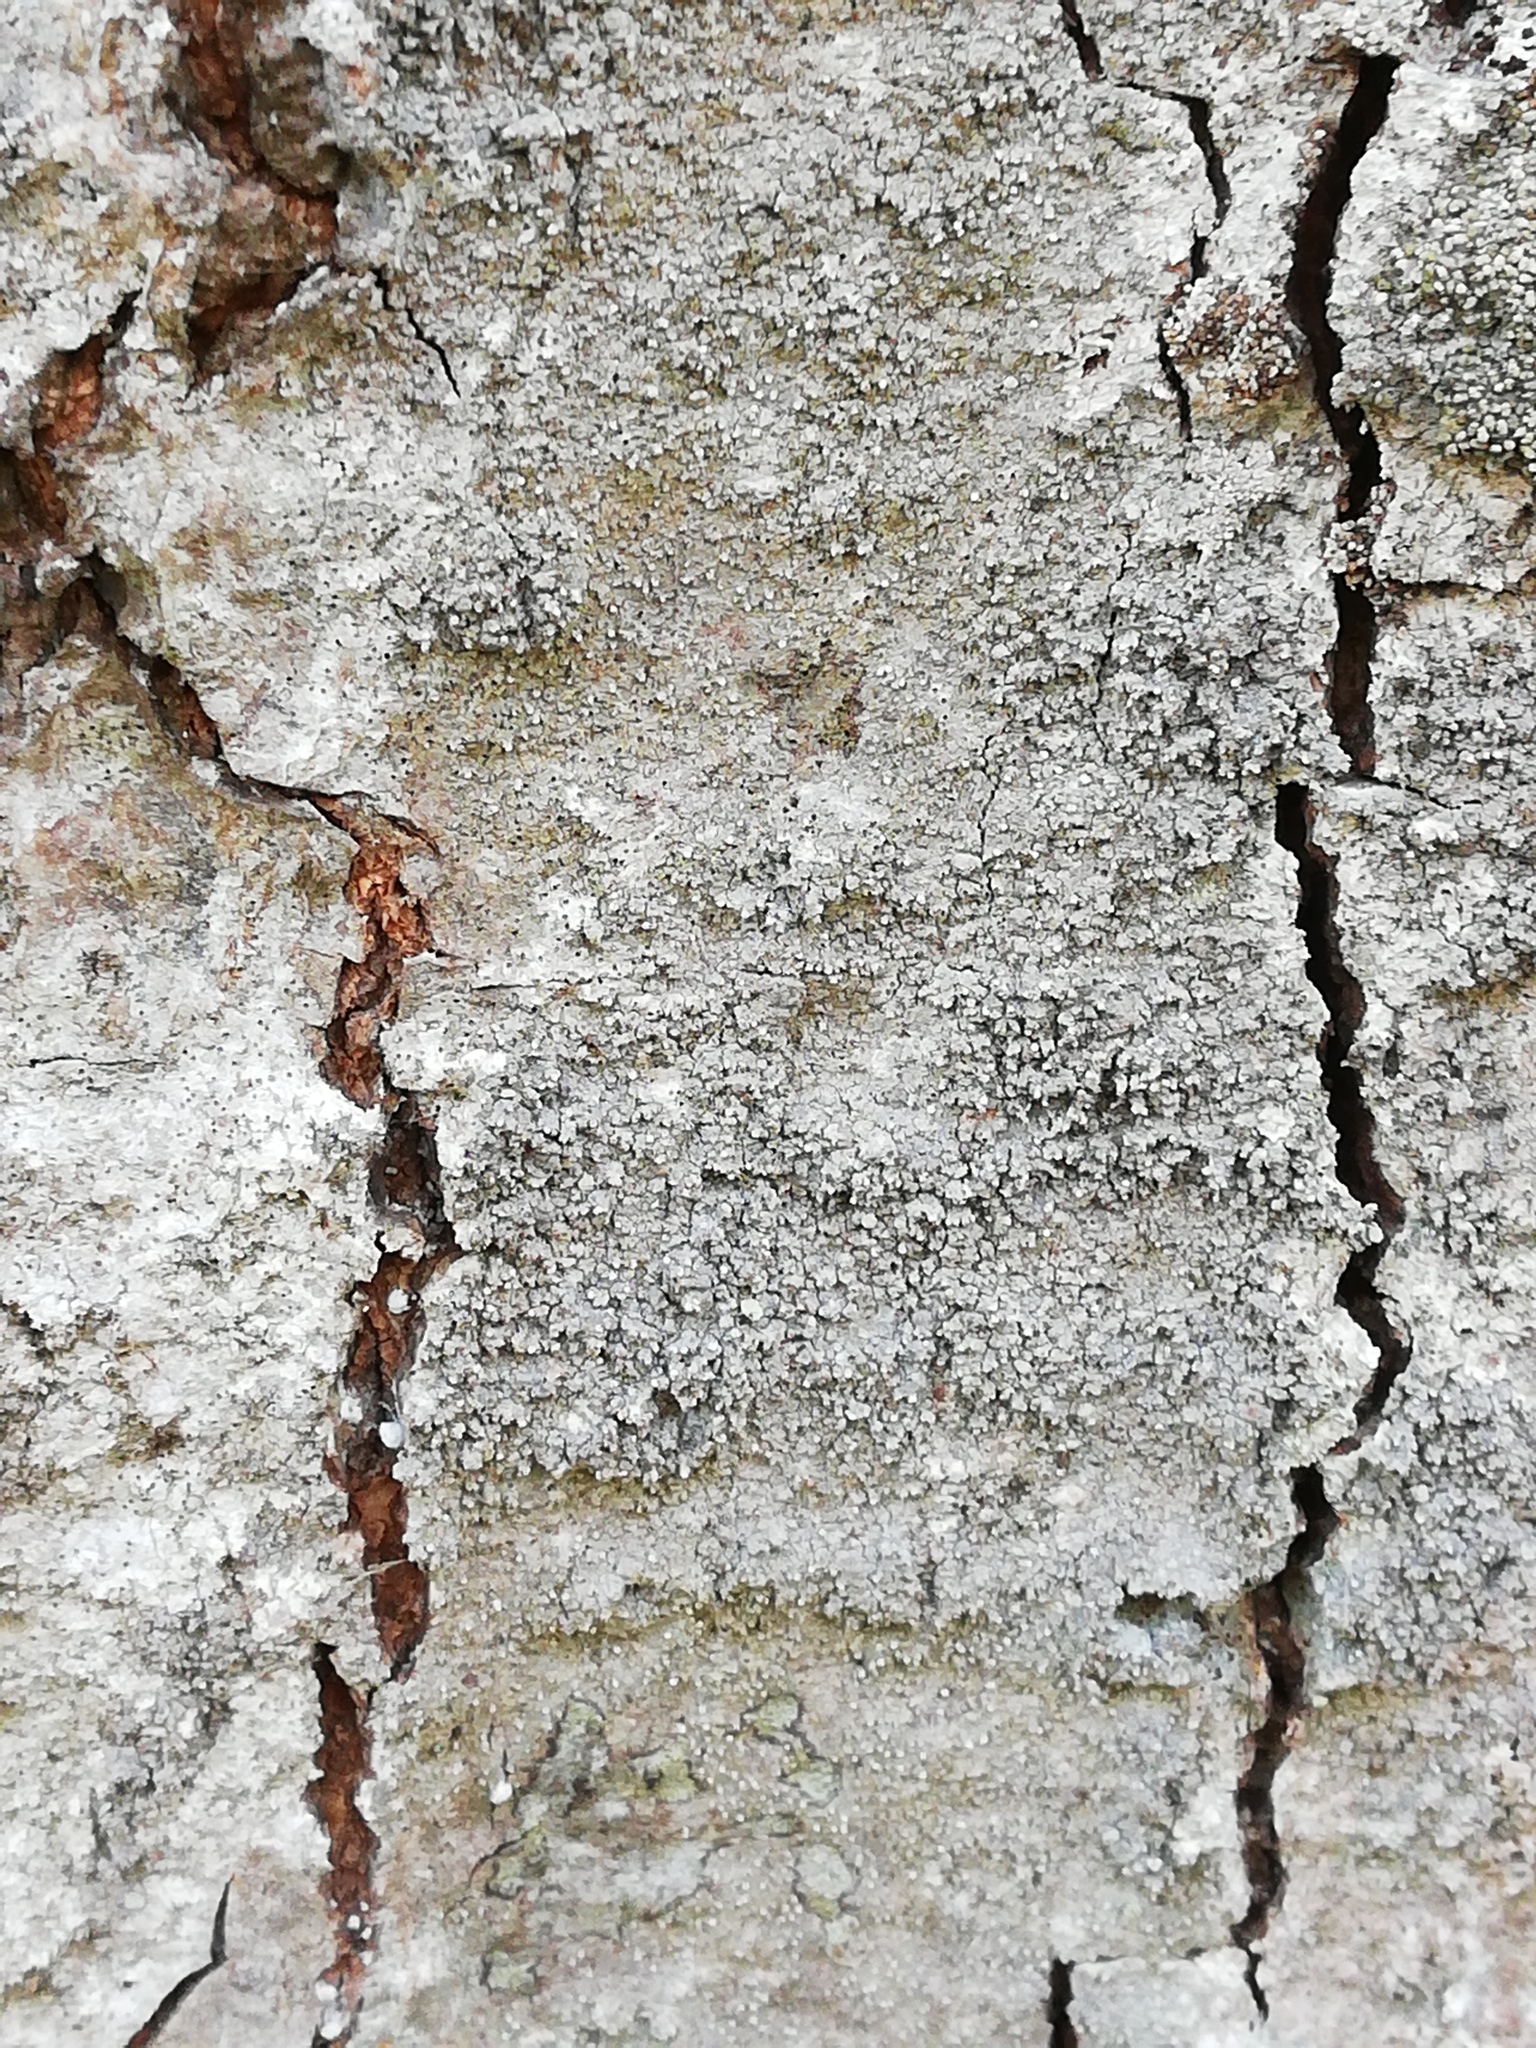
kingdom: Fungi
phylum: Ascomycota
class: Arthoniomycetes
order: Arthoniales
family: Roccellaceae
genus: Lecanactis
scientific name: Lecanactis abietina
